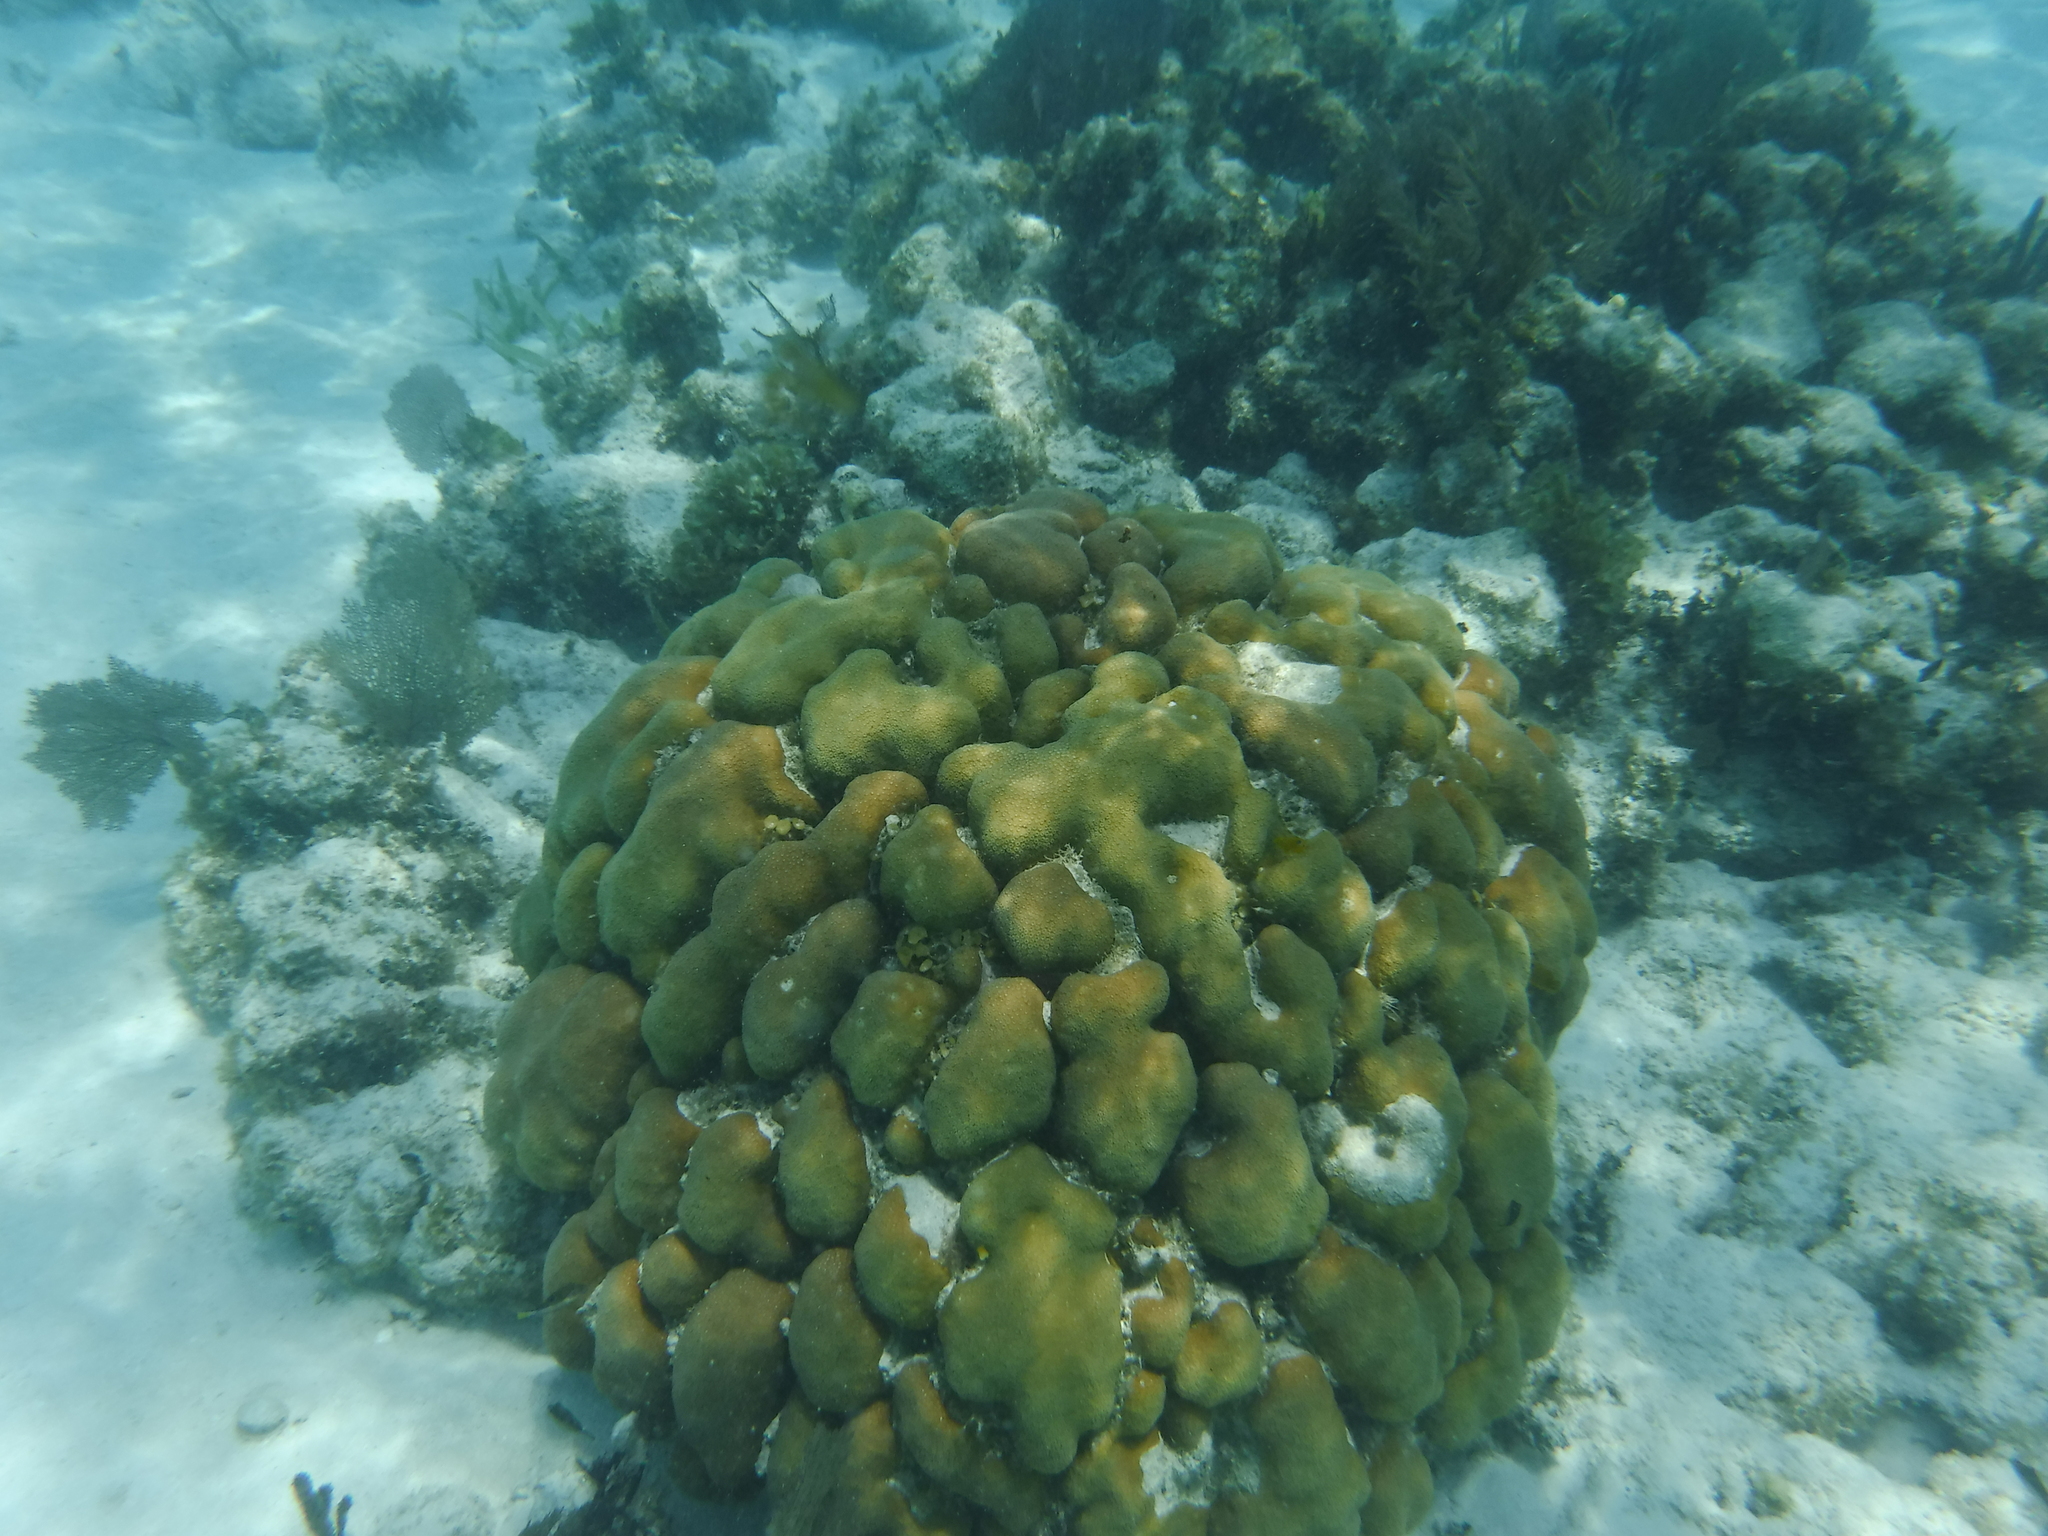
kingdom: Animalia
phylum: Cnidaria
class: Anthozoa
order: Scleractinia
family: Merulinidae
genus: Orbicella
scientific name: Orbicella annularis
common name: Boulder star coral
